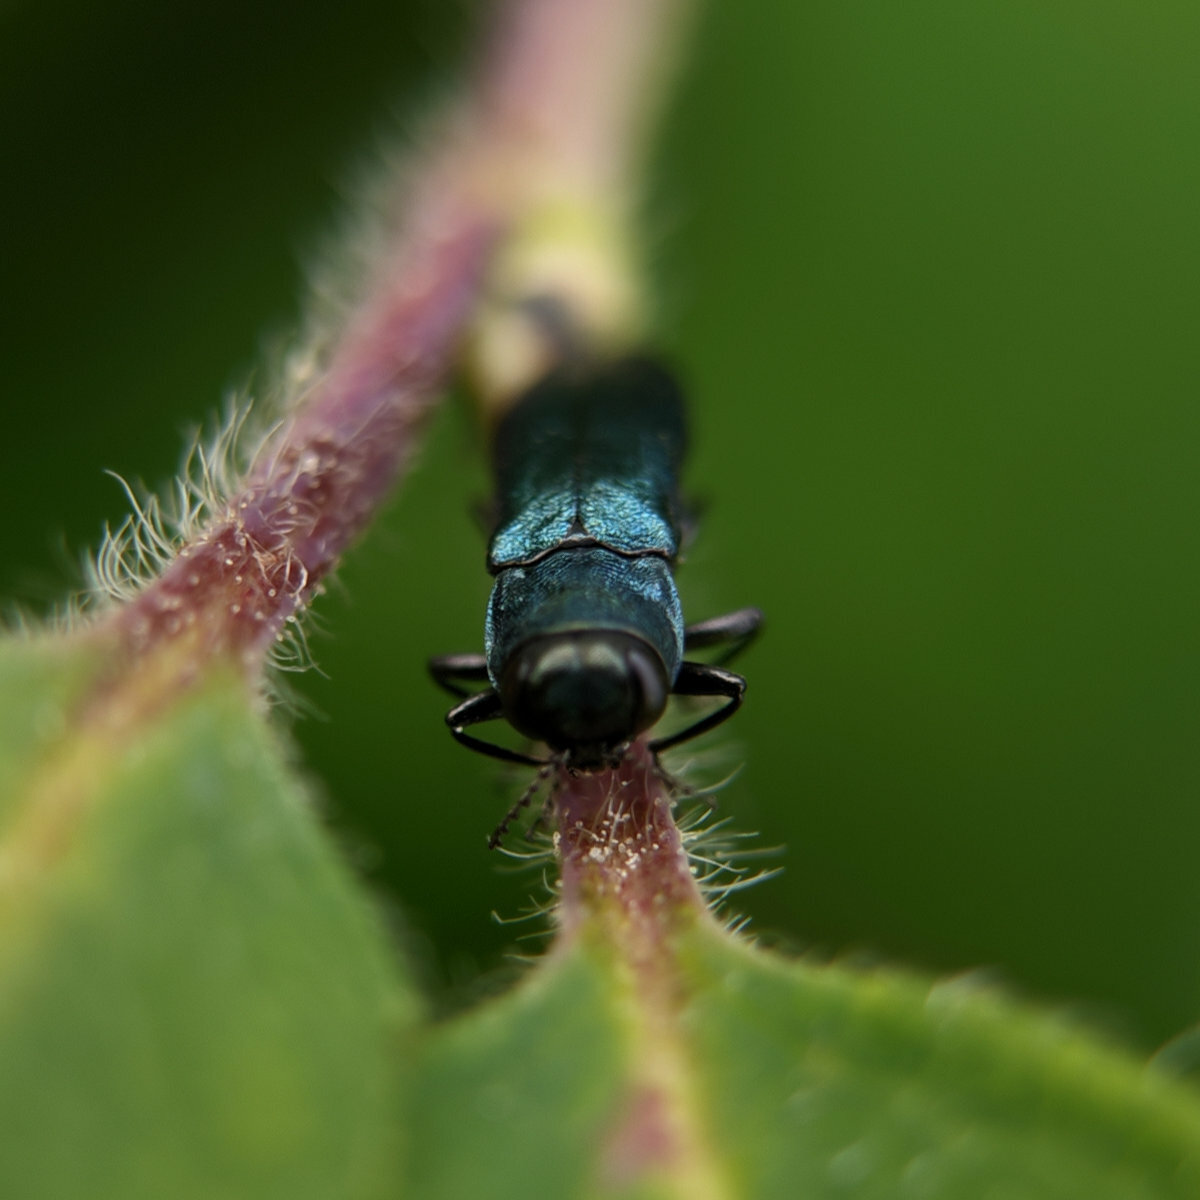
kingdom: Animalia
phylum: Arthropoda
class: Insecta
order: Coleoptera
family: Buprestidae
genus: Agrilus
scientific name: Agrilus cyanescens
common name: Bluish borer beetle
